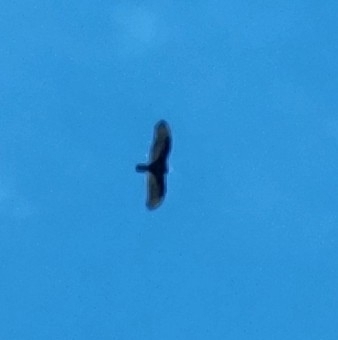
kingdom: Animalia
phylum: Chordata
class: Aves
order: Accipitriformes
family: Cathartidae
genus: Cathartes
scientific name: Cathartes aura
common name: Turkey vulture
